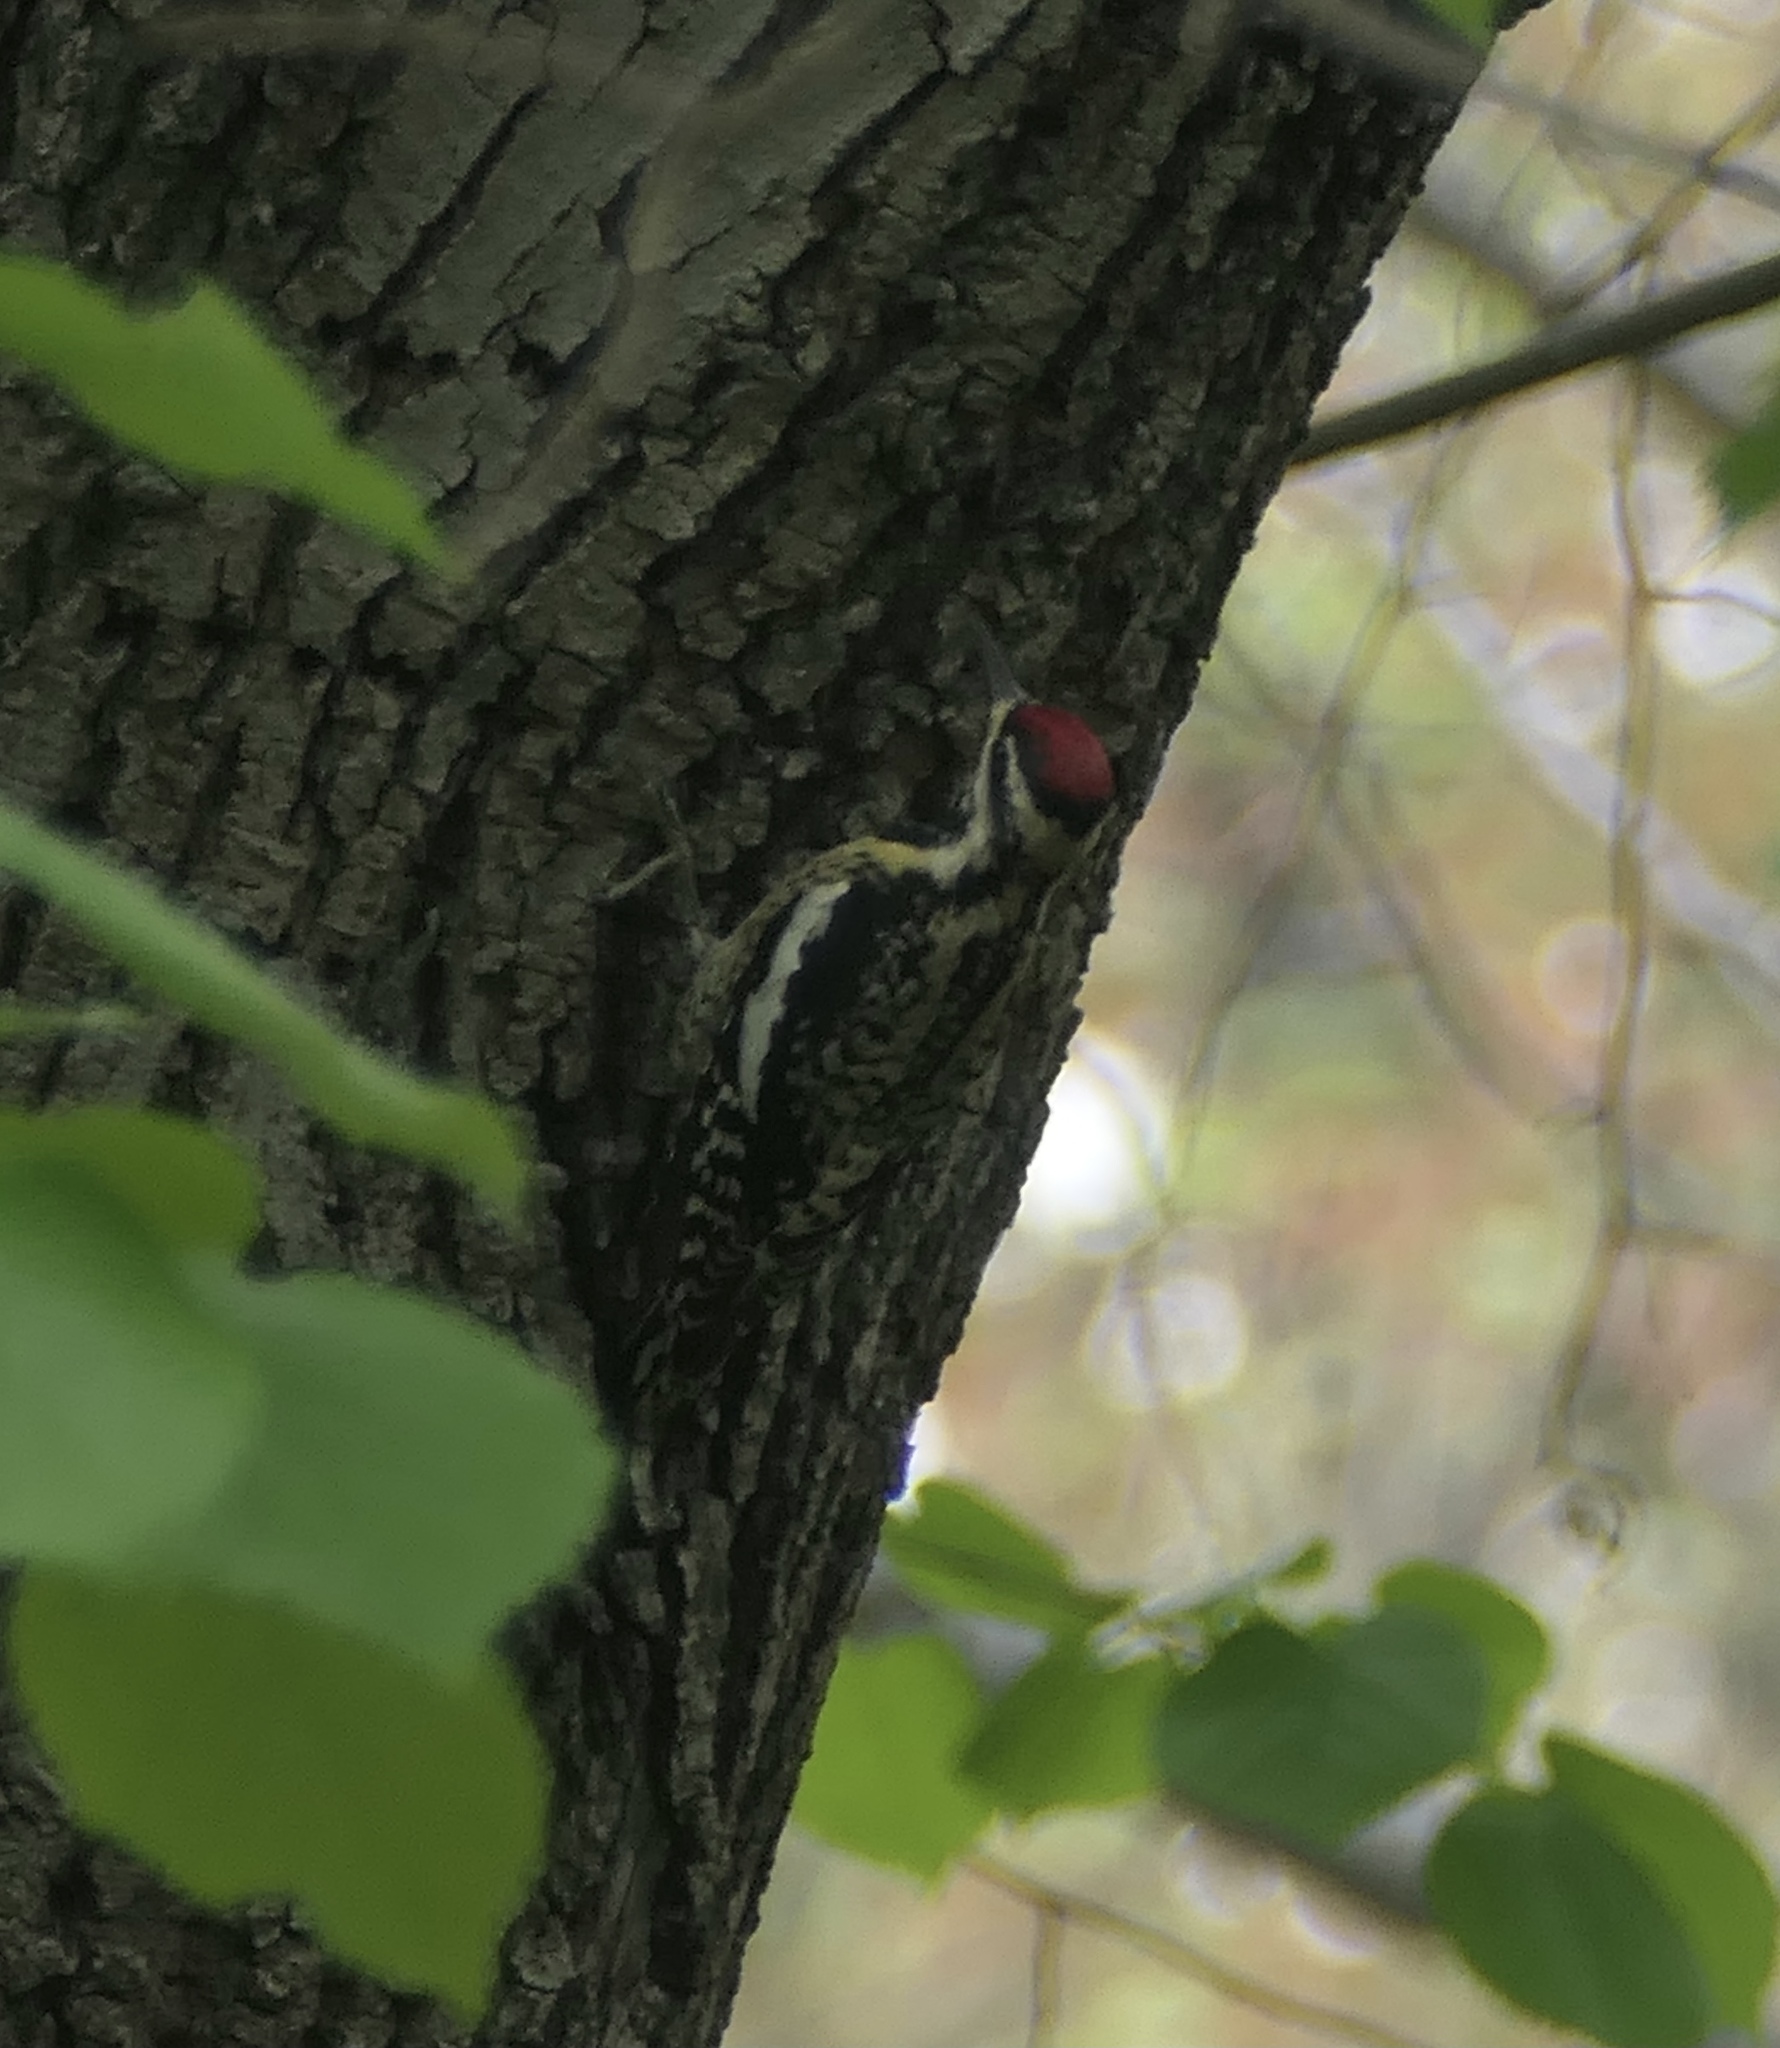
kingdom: Animalia
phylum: Chordata
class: Aves
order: Piciformes
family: Picidae
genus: Sphyrapicus
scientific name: Sphyrapicus varius
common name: Yellow-bellied sapsucker
